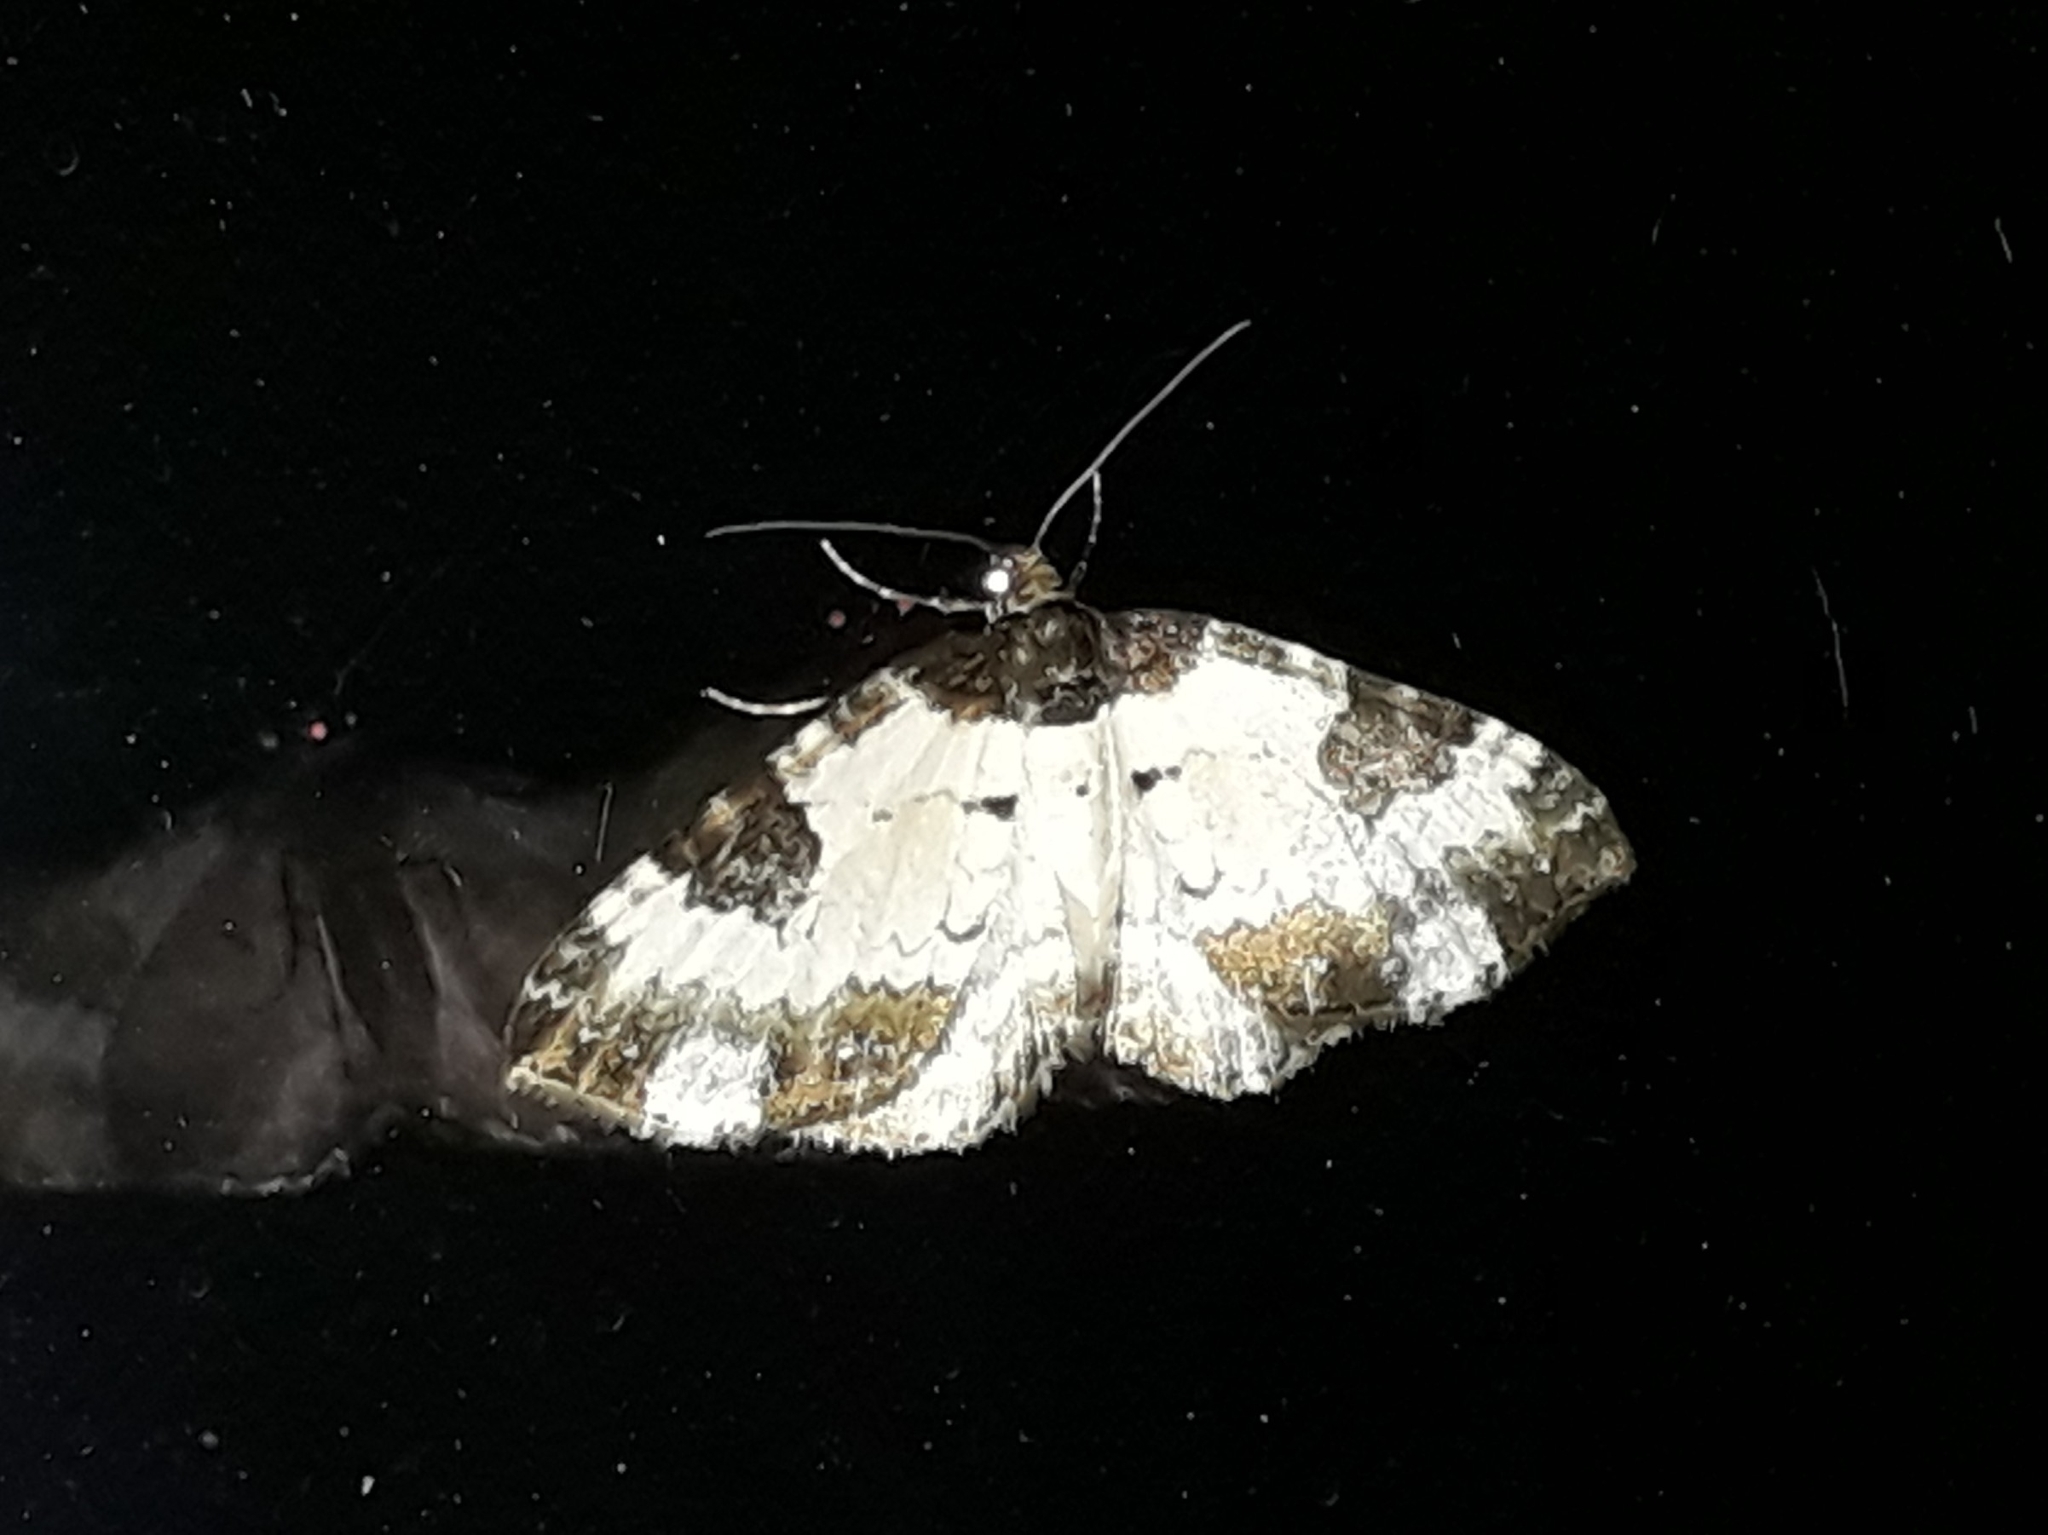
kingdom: Animalia
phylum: Arthropoda
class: Insecta
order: Lepidoptera
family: Geometridae
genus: Melanthia
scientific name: Melanthia procellata
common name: Pretty chalk carpet
